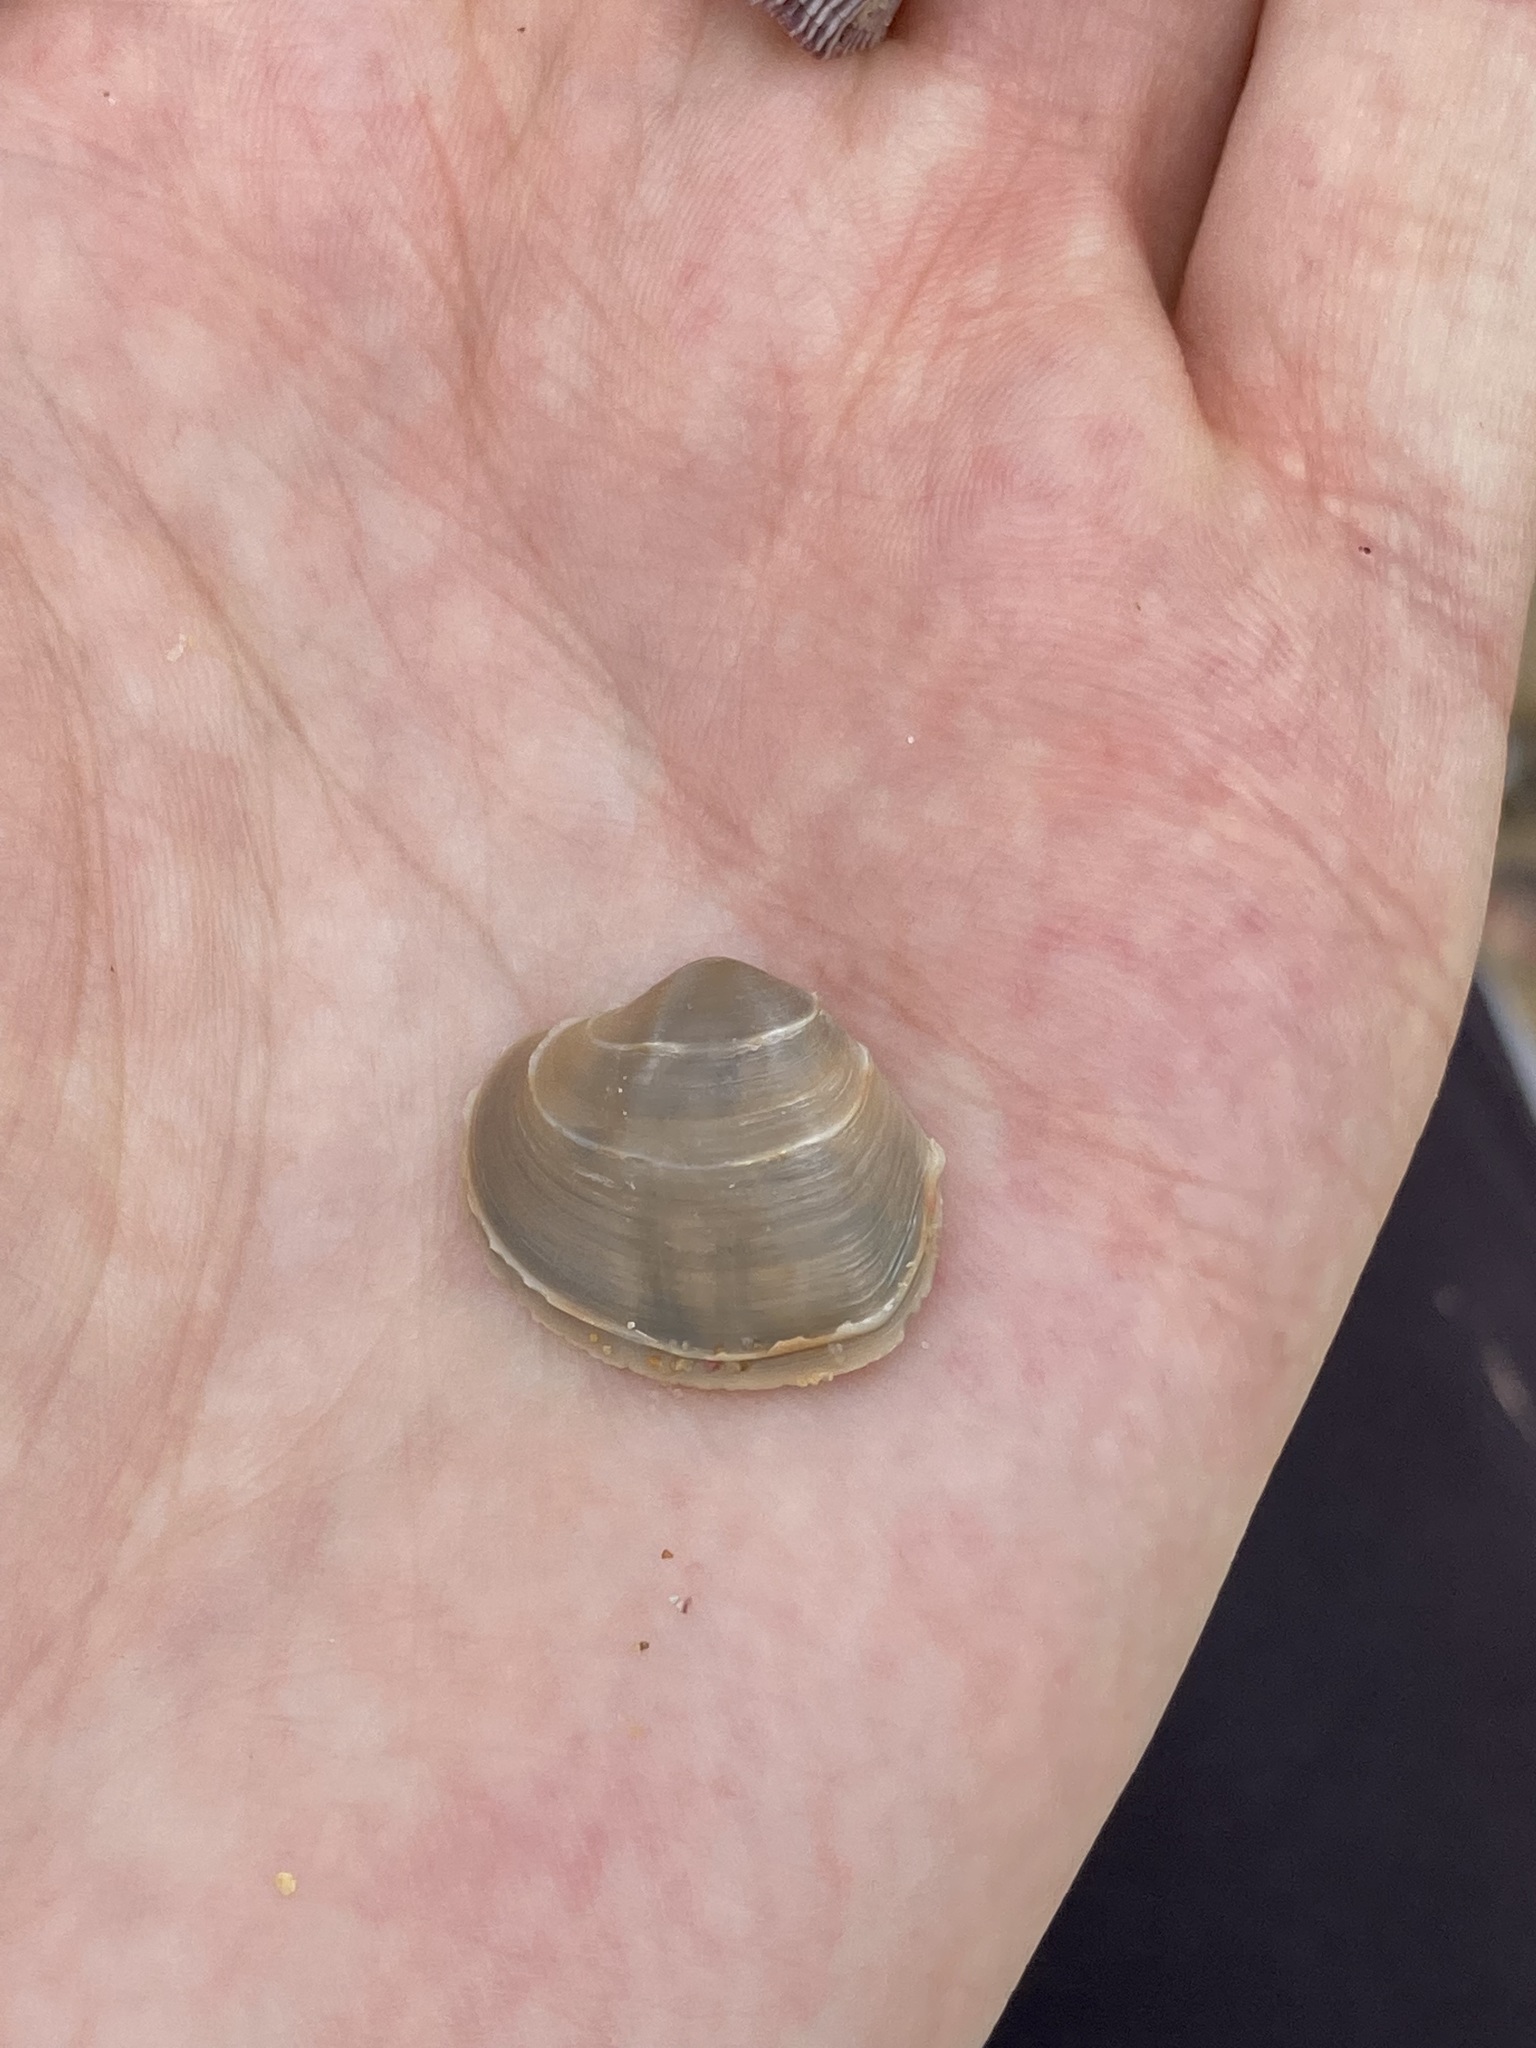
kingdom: Animalia
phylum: Mollusca
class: Bivalvia
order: Venerida
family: Veneridae
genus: Bassina
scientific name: Bassina jacksonii
